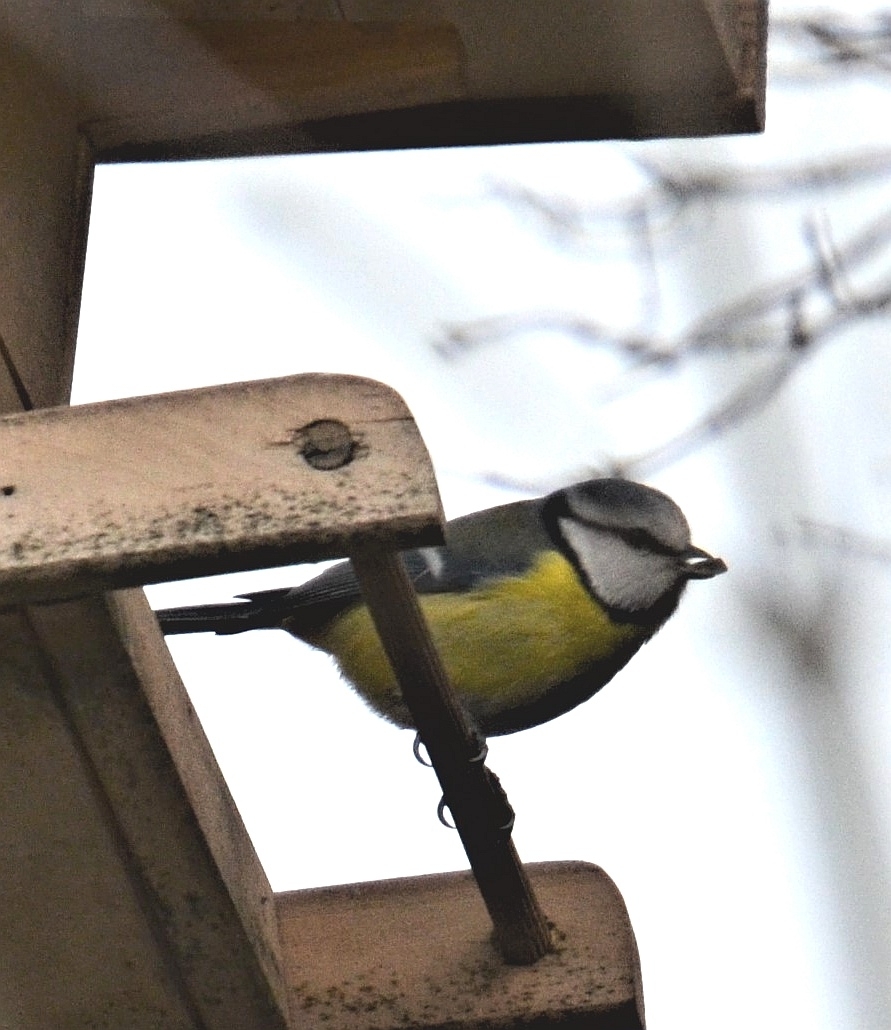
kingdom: Animalia
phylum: Chordata
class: Aves
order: Passeriformes
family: Paridae
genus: Cyanistes
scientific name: Cyanistes caeruleus
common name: Eurasian blue tit
